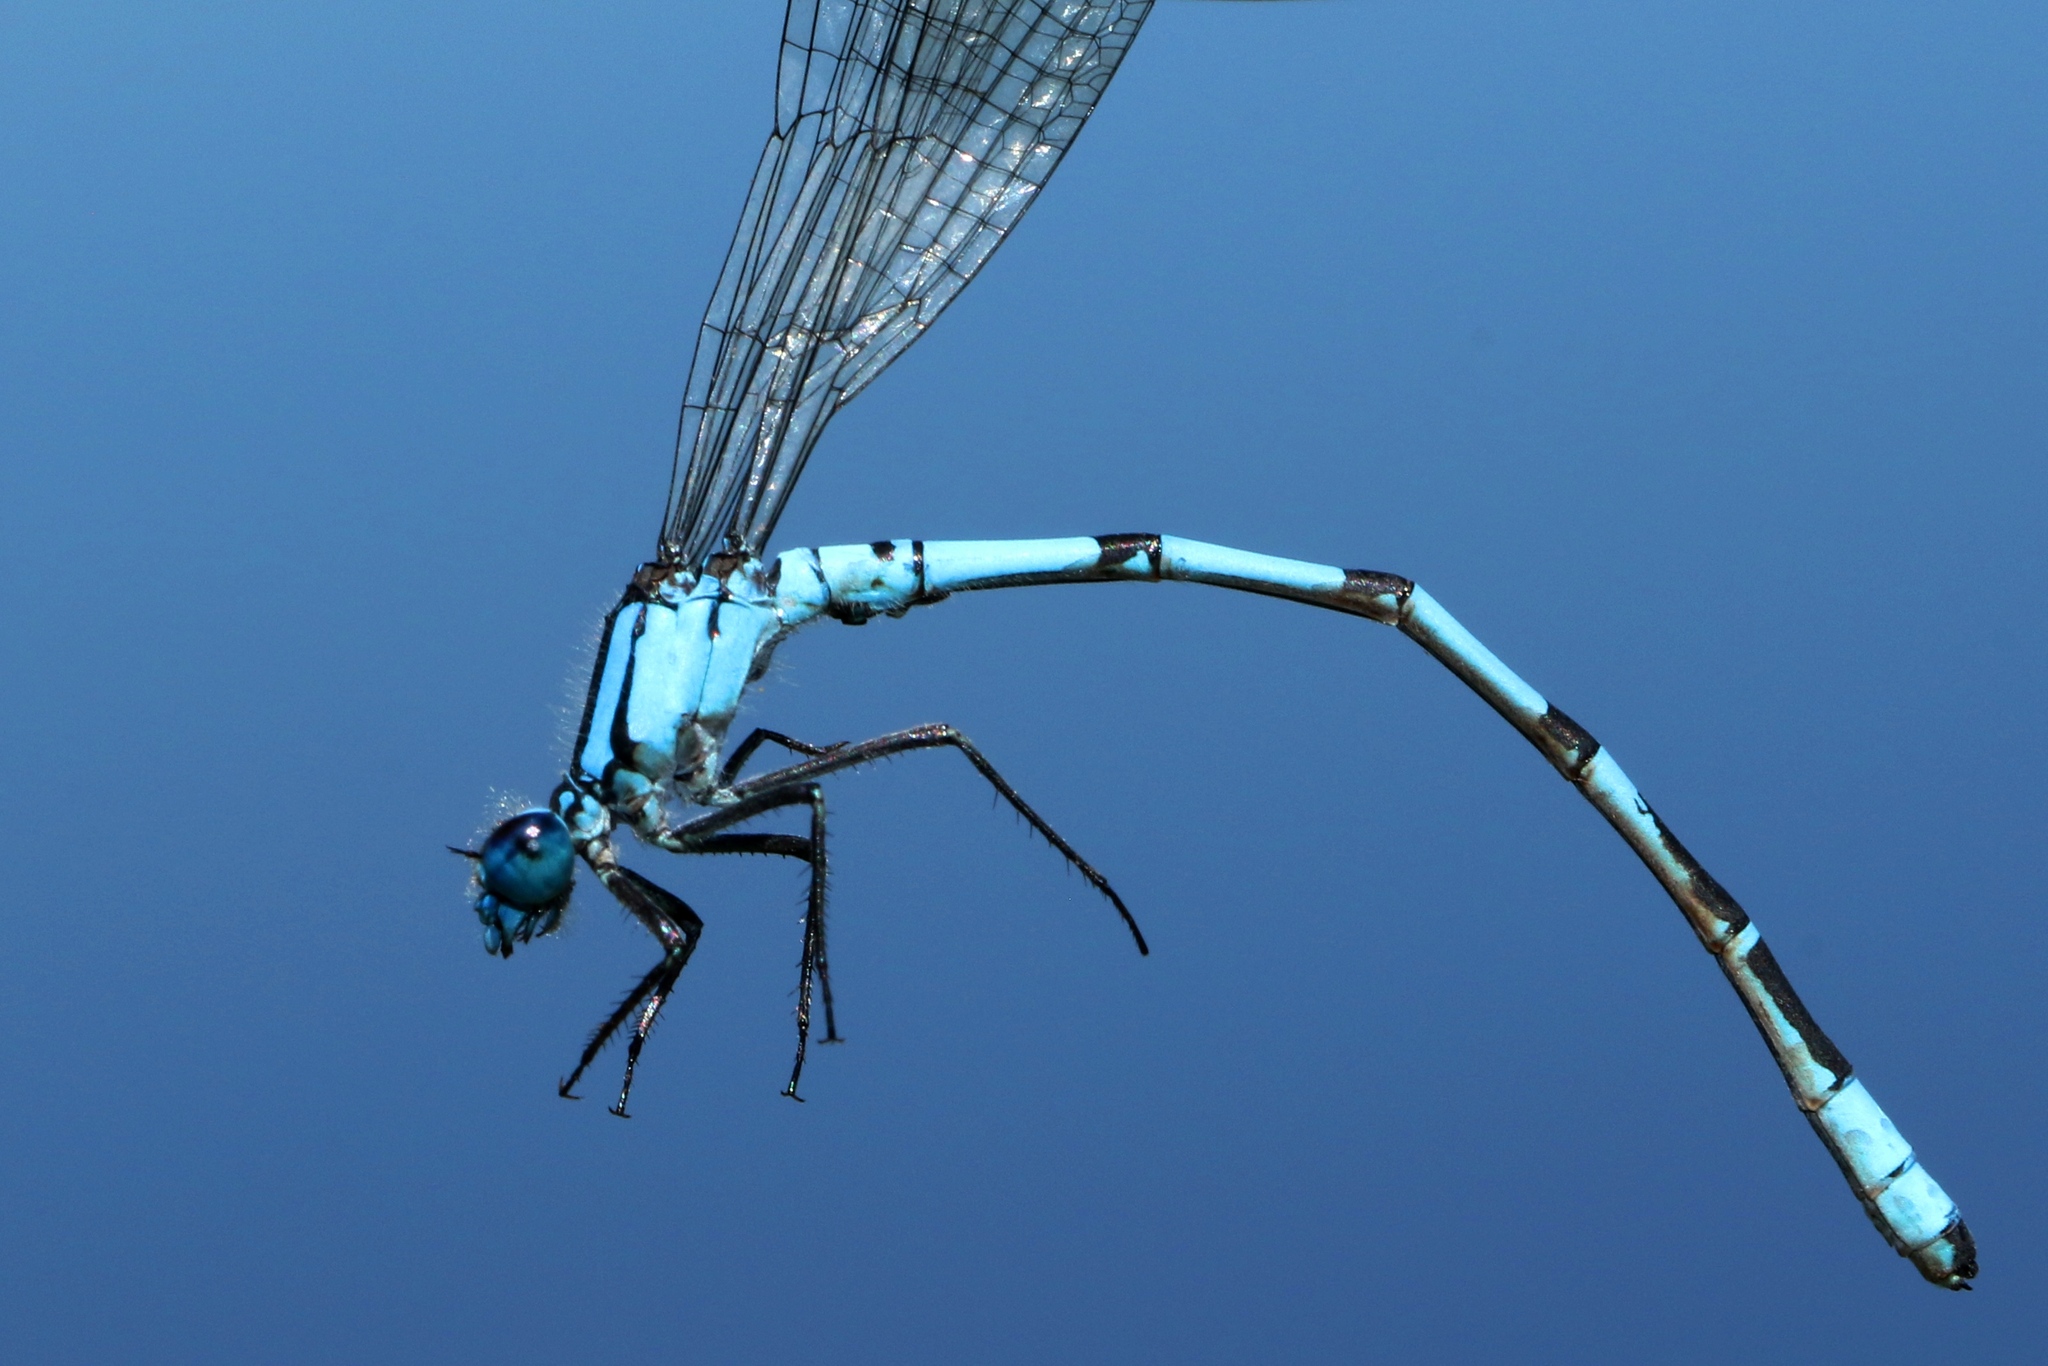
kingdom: Animalia
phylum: Arthropoda
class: Insecta
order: Odonata
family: Coenagrionidae
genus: Enallagma
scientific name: Enallagma boreale
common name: Boreal bluet
